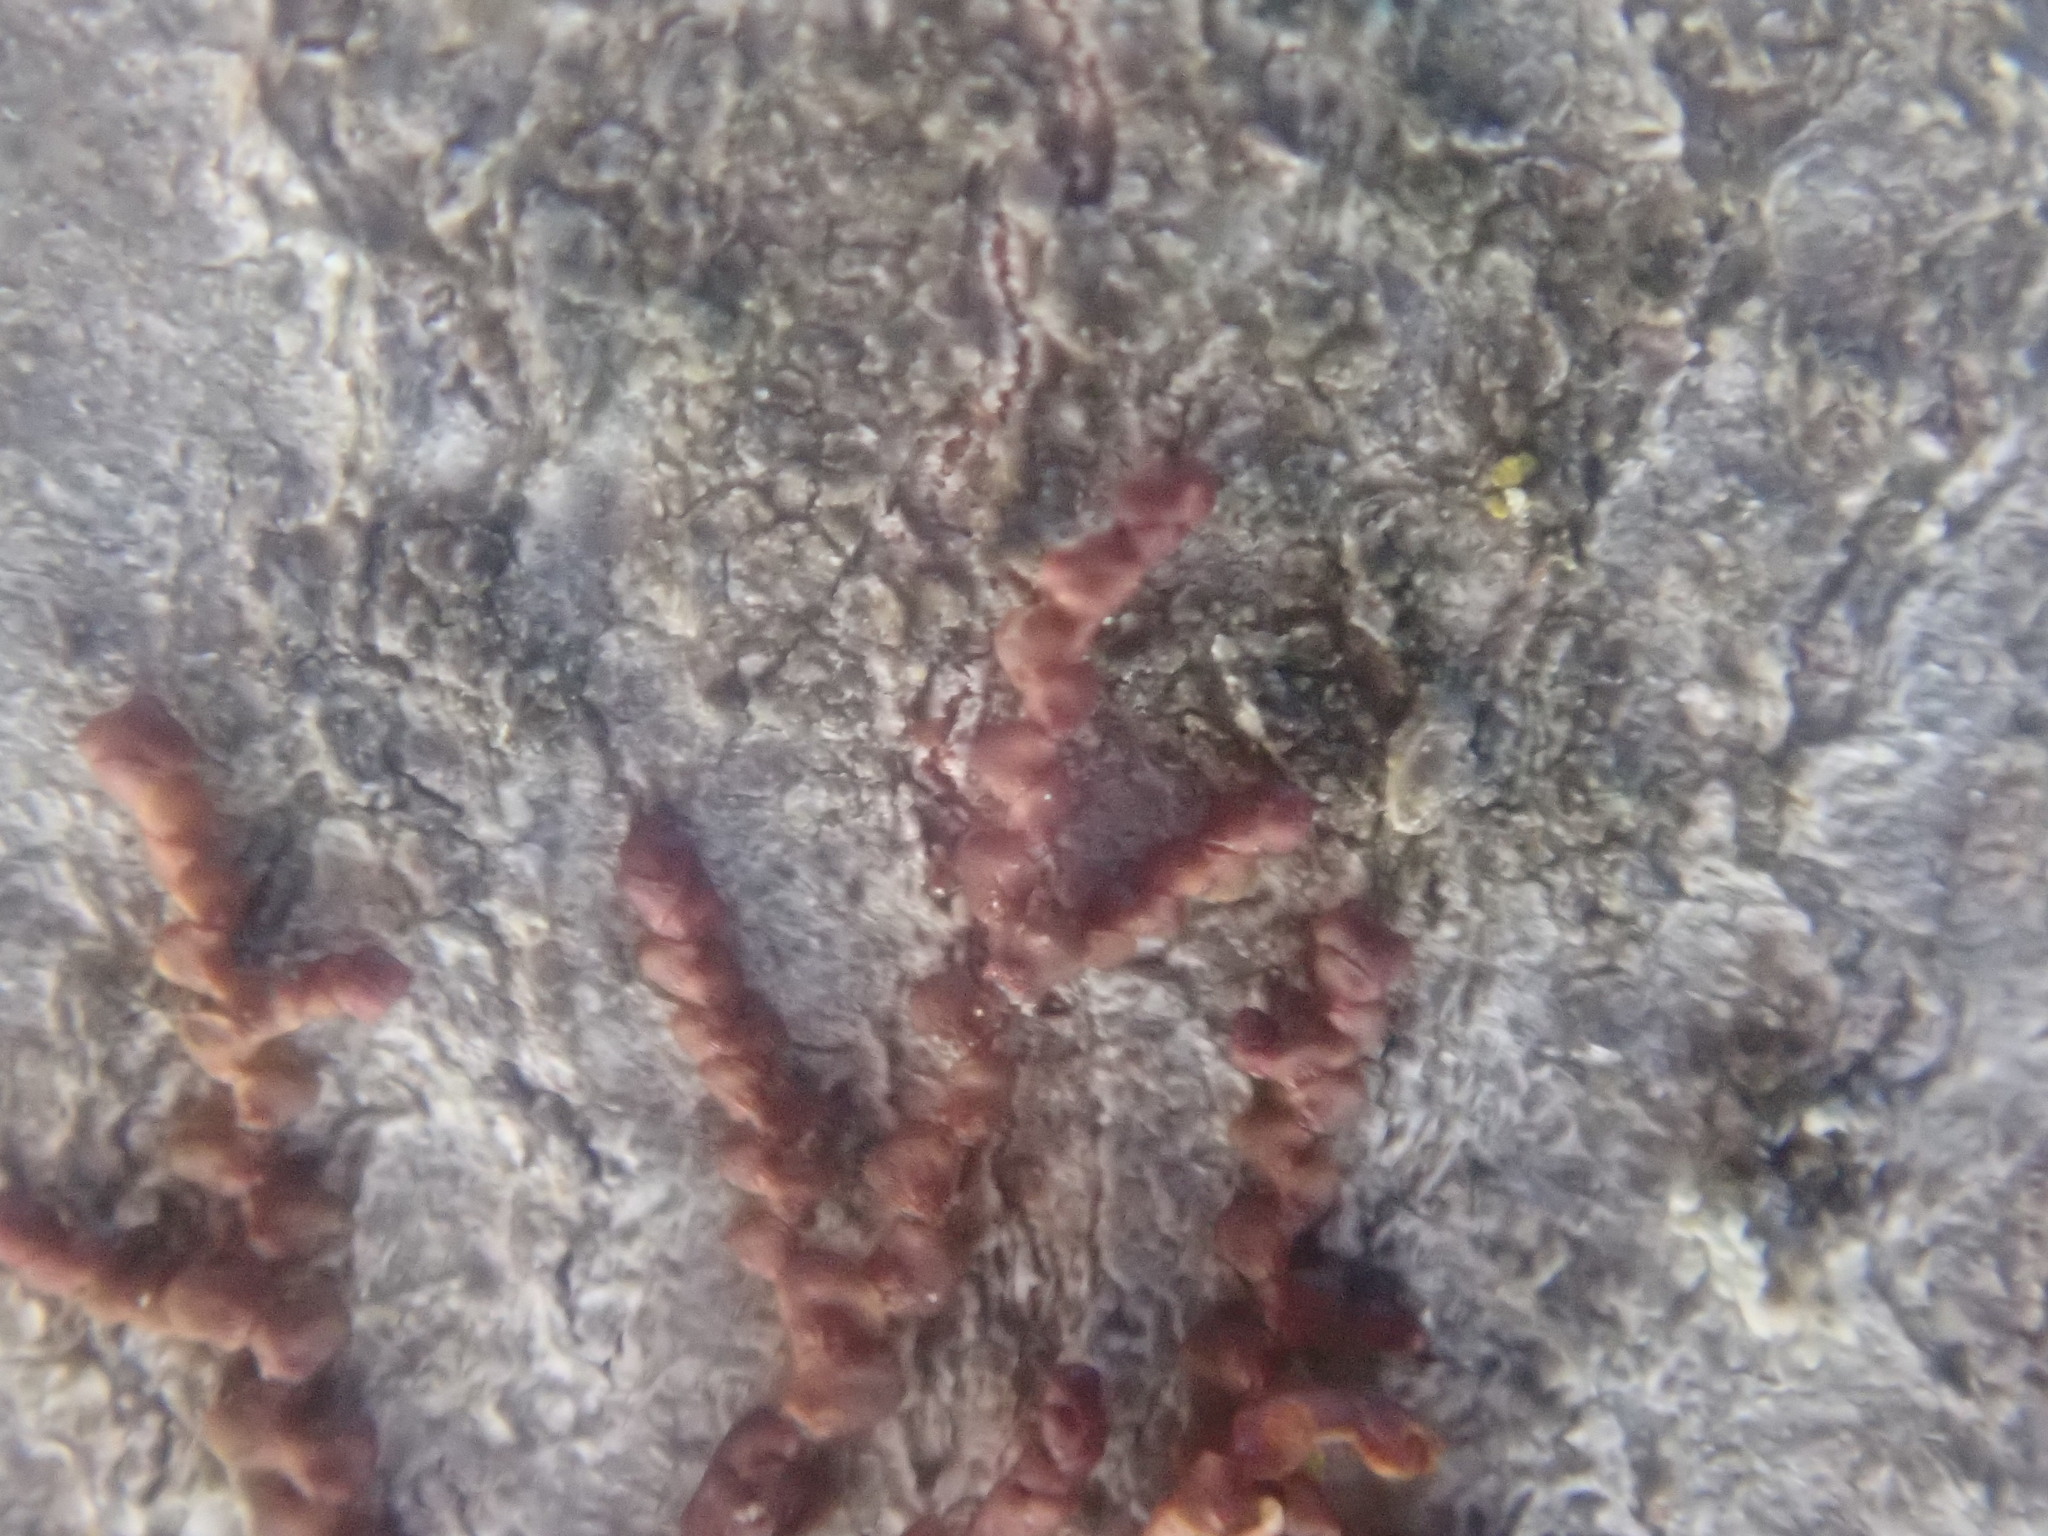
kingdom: Plantae
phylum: Marchantiophyta
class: Jungermanniopsida
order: Porellales
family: Frullaniaceae
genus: Frullania
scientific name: Frullania
